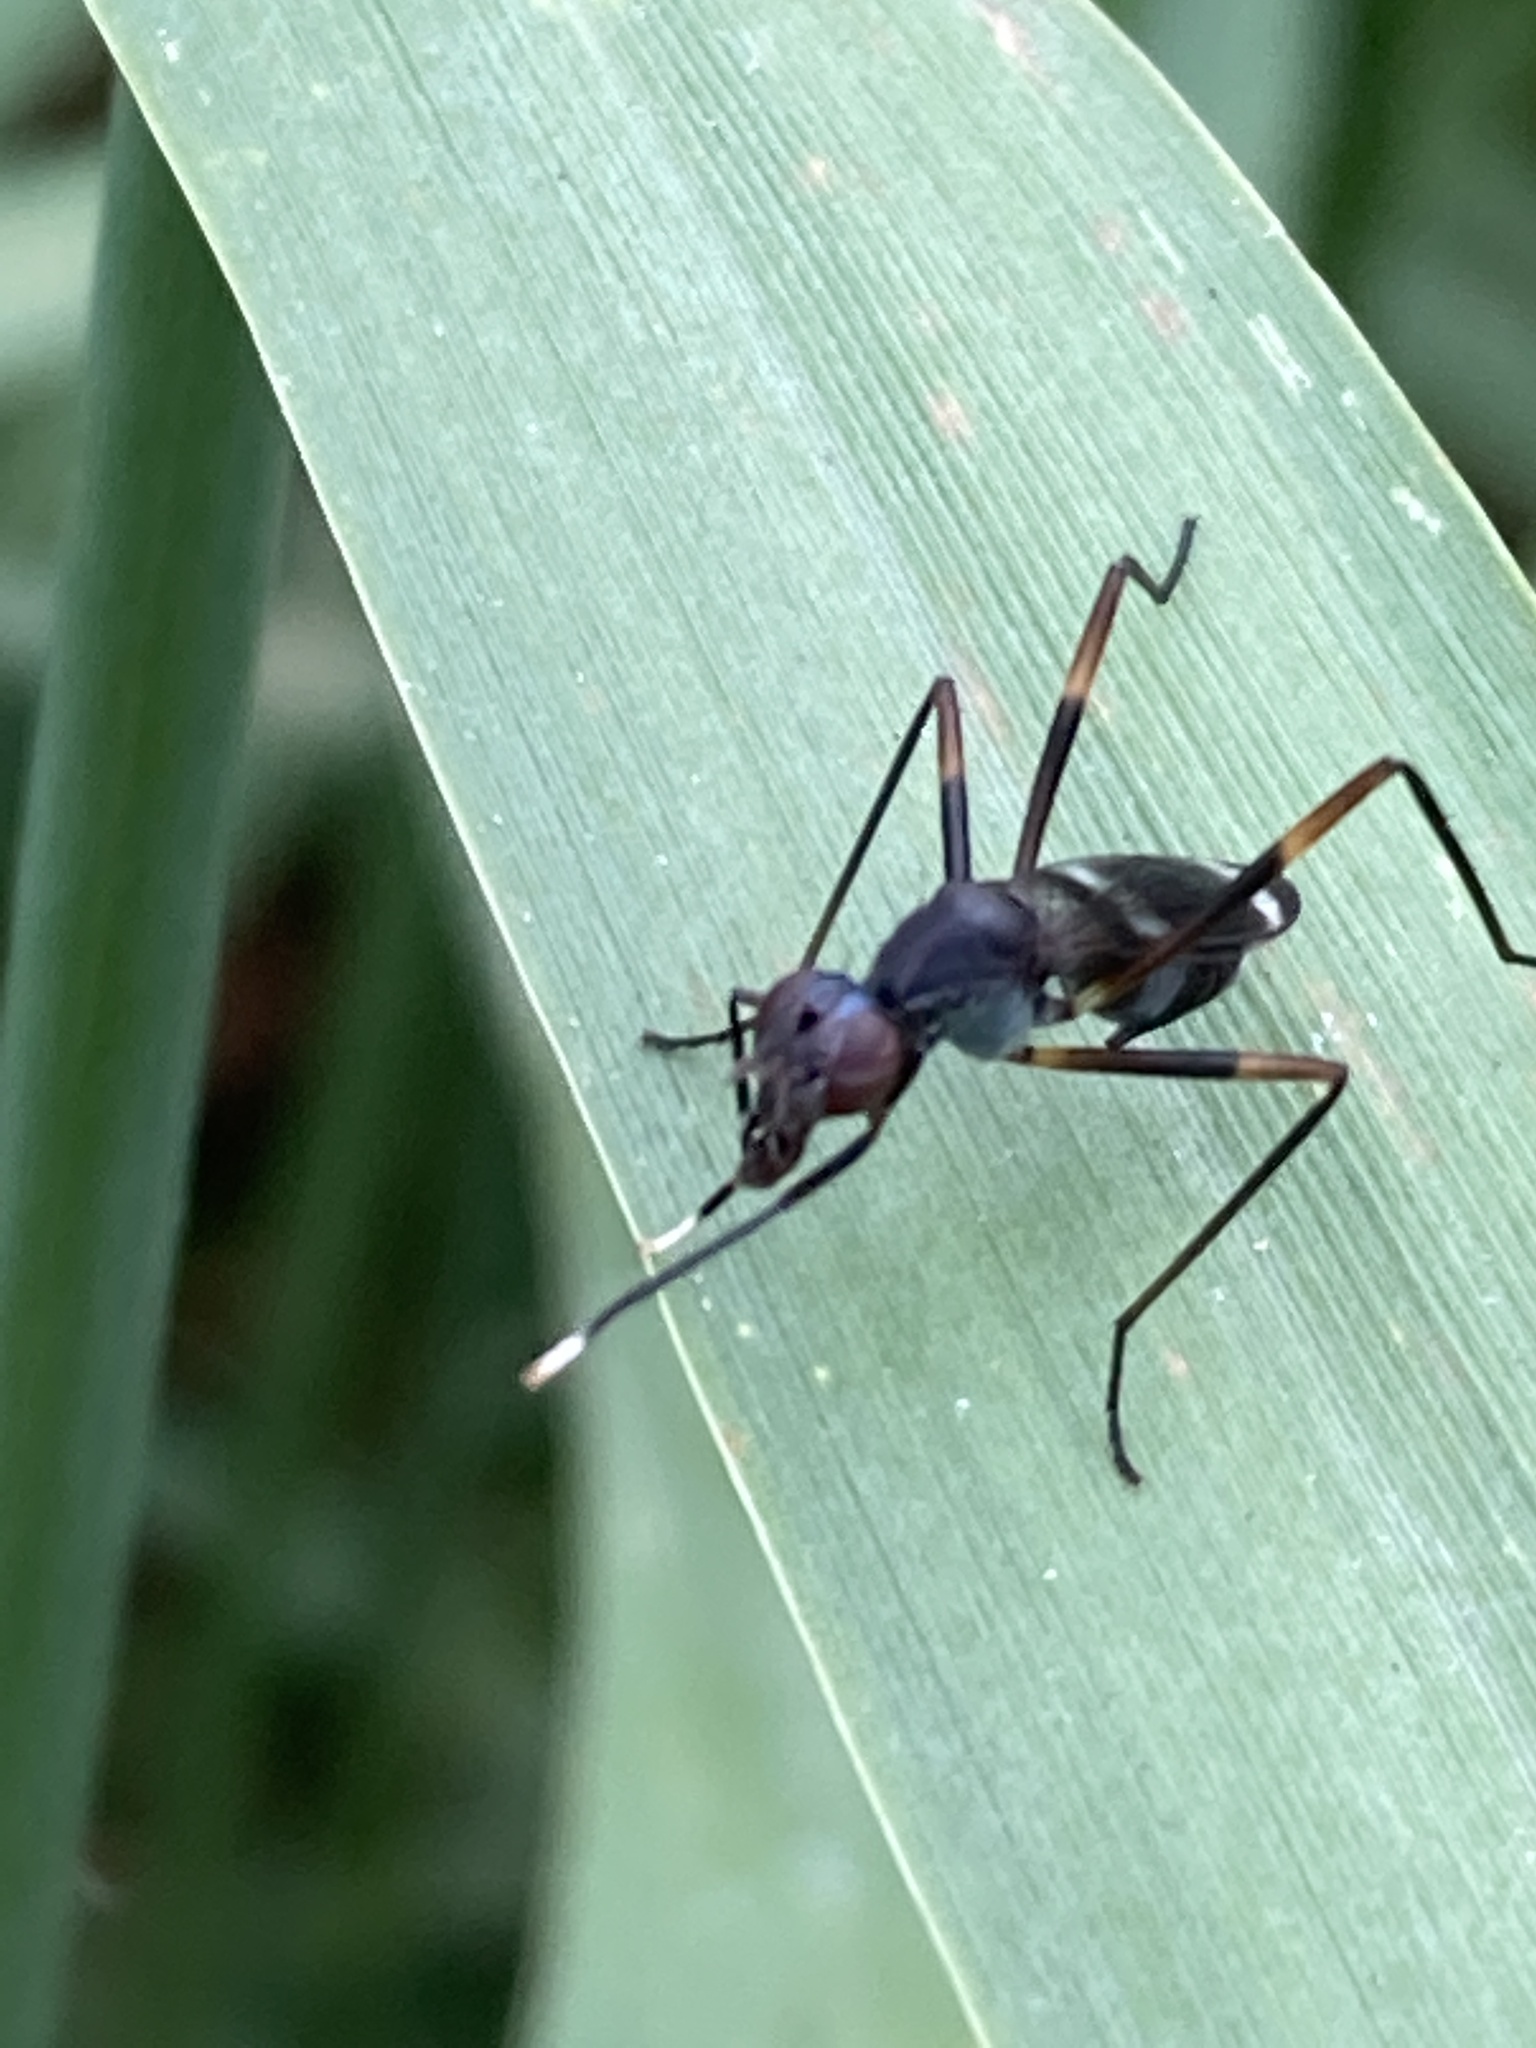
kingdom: Animalia
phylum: Arthropoda
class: Insecta
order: Diptera
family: Micropezidae
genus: Taeniaptera
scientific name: Taeniaptera trivittata
